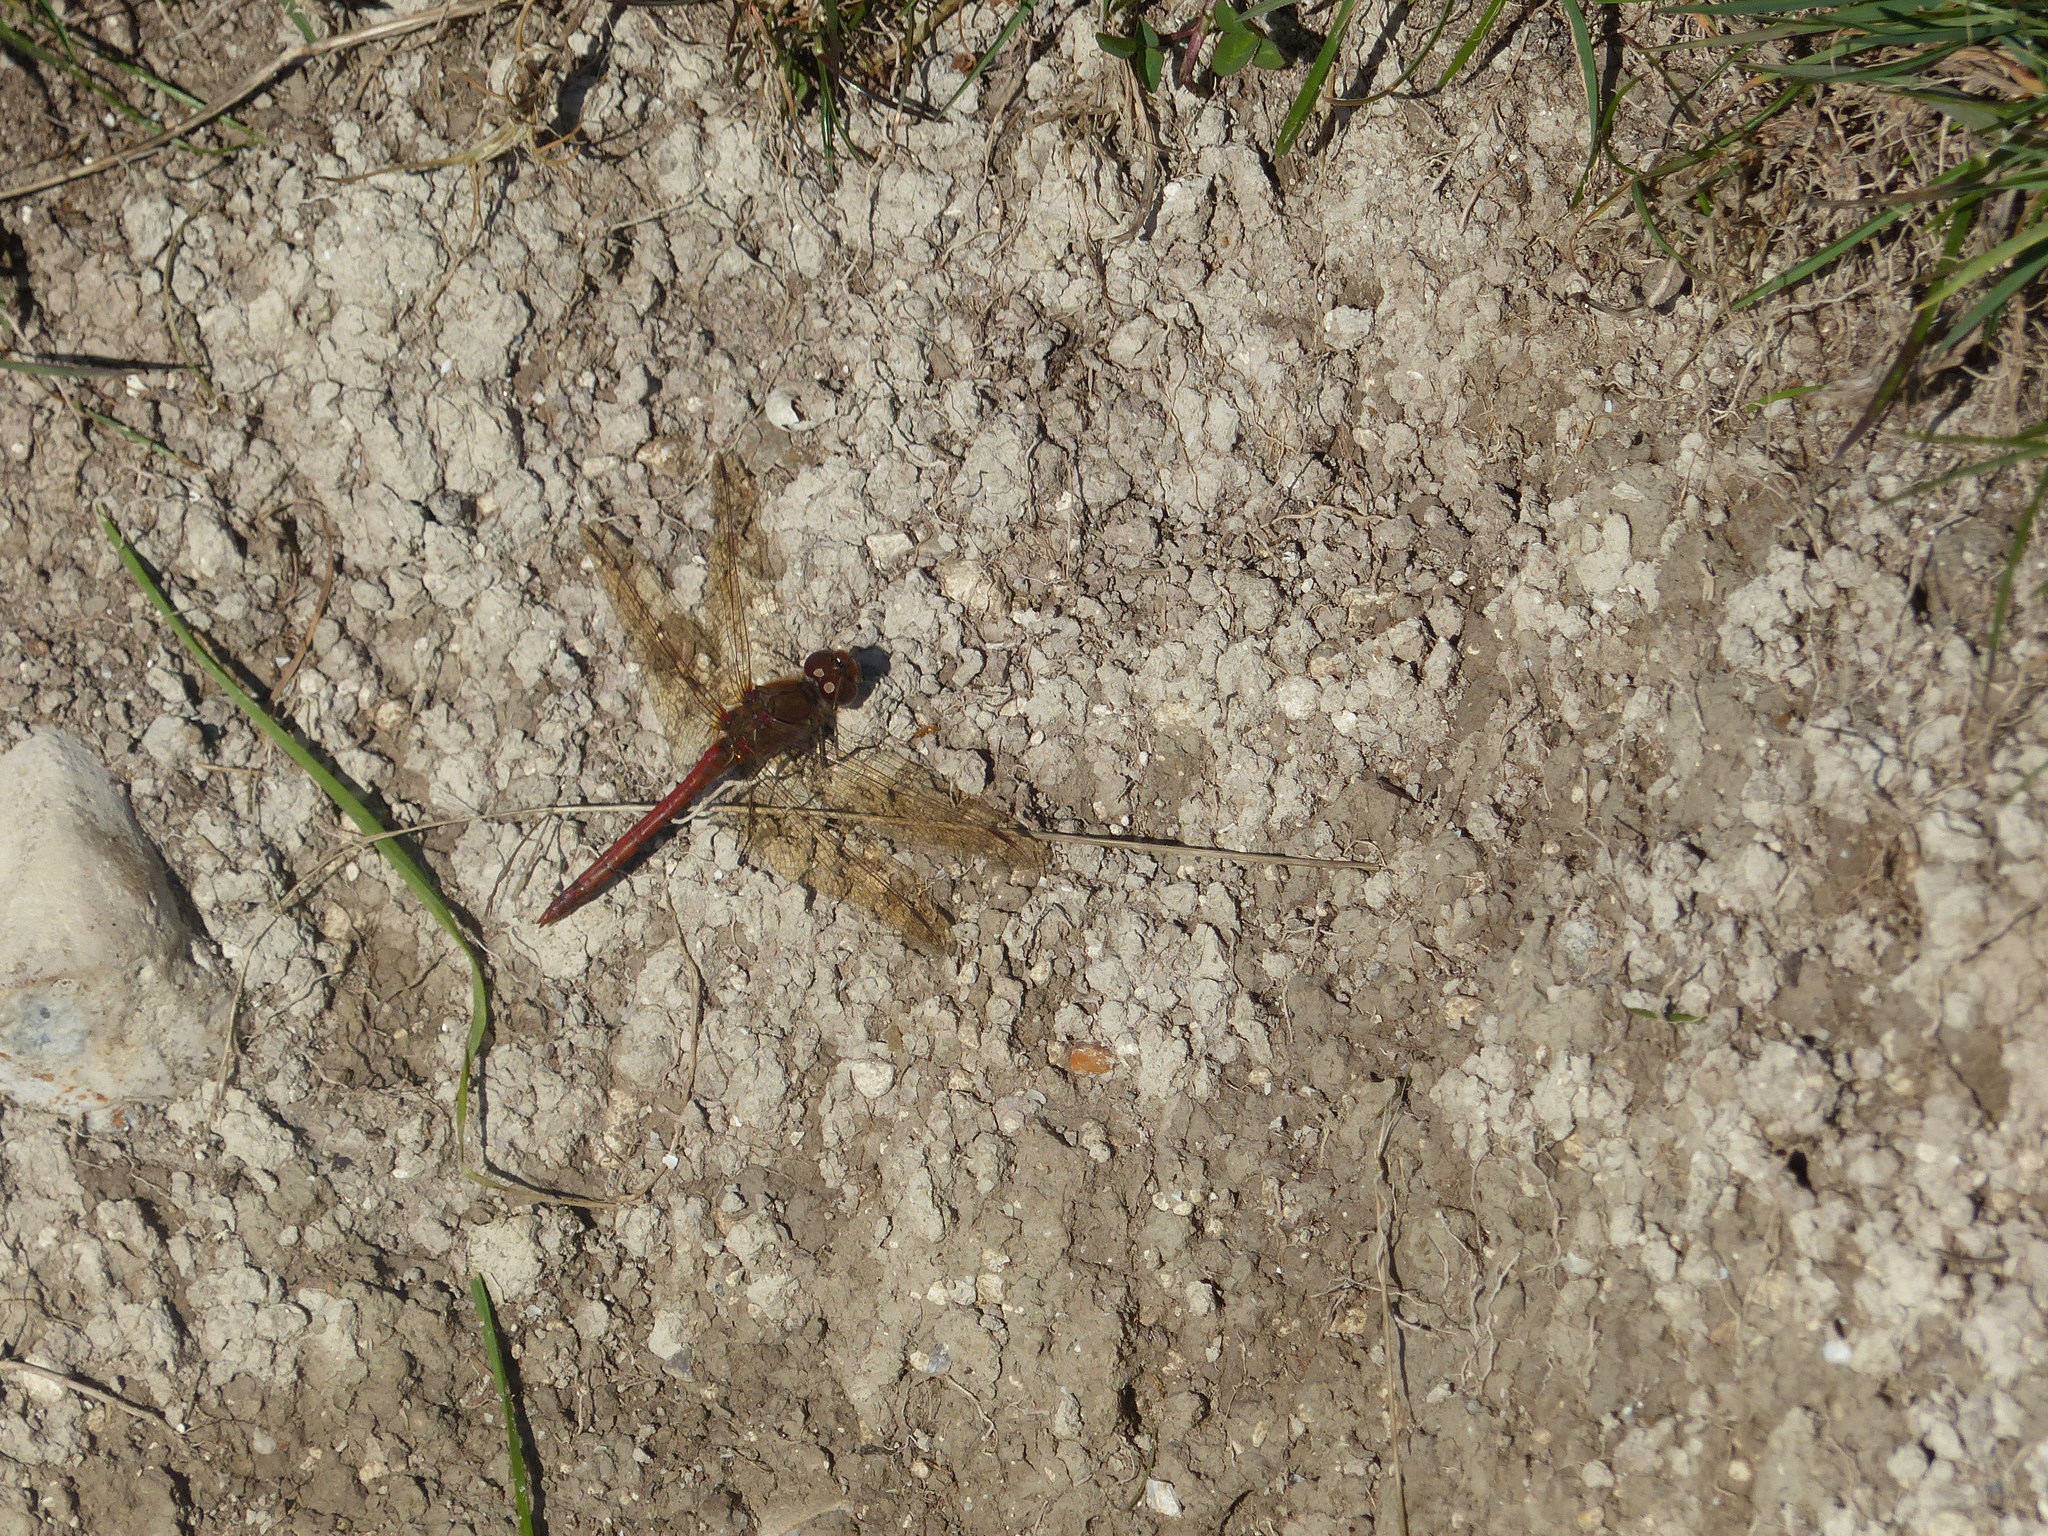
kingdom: Animalia
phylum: Arthropoda
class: Insecta
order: Odonata
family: Libellulidae
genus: Sympetrum
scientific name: Sympetrum striolatum
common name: Common darter
